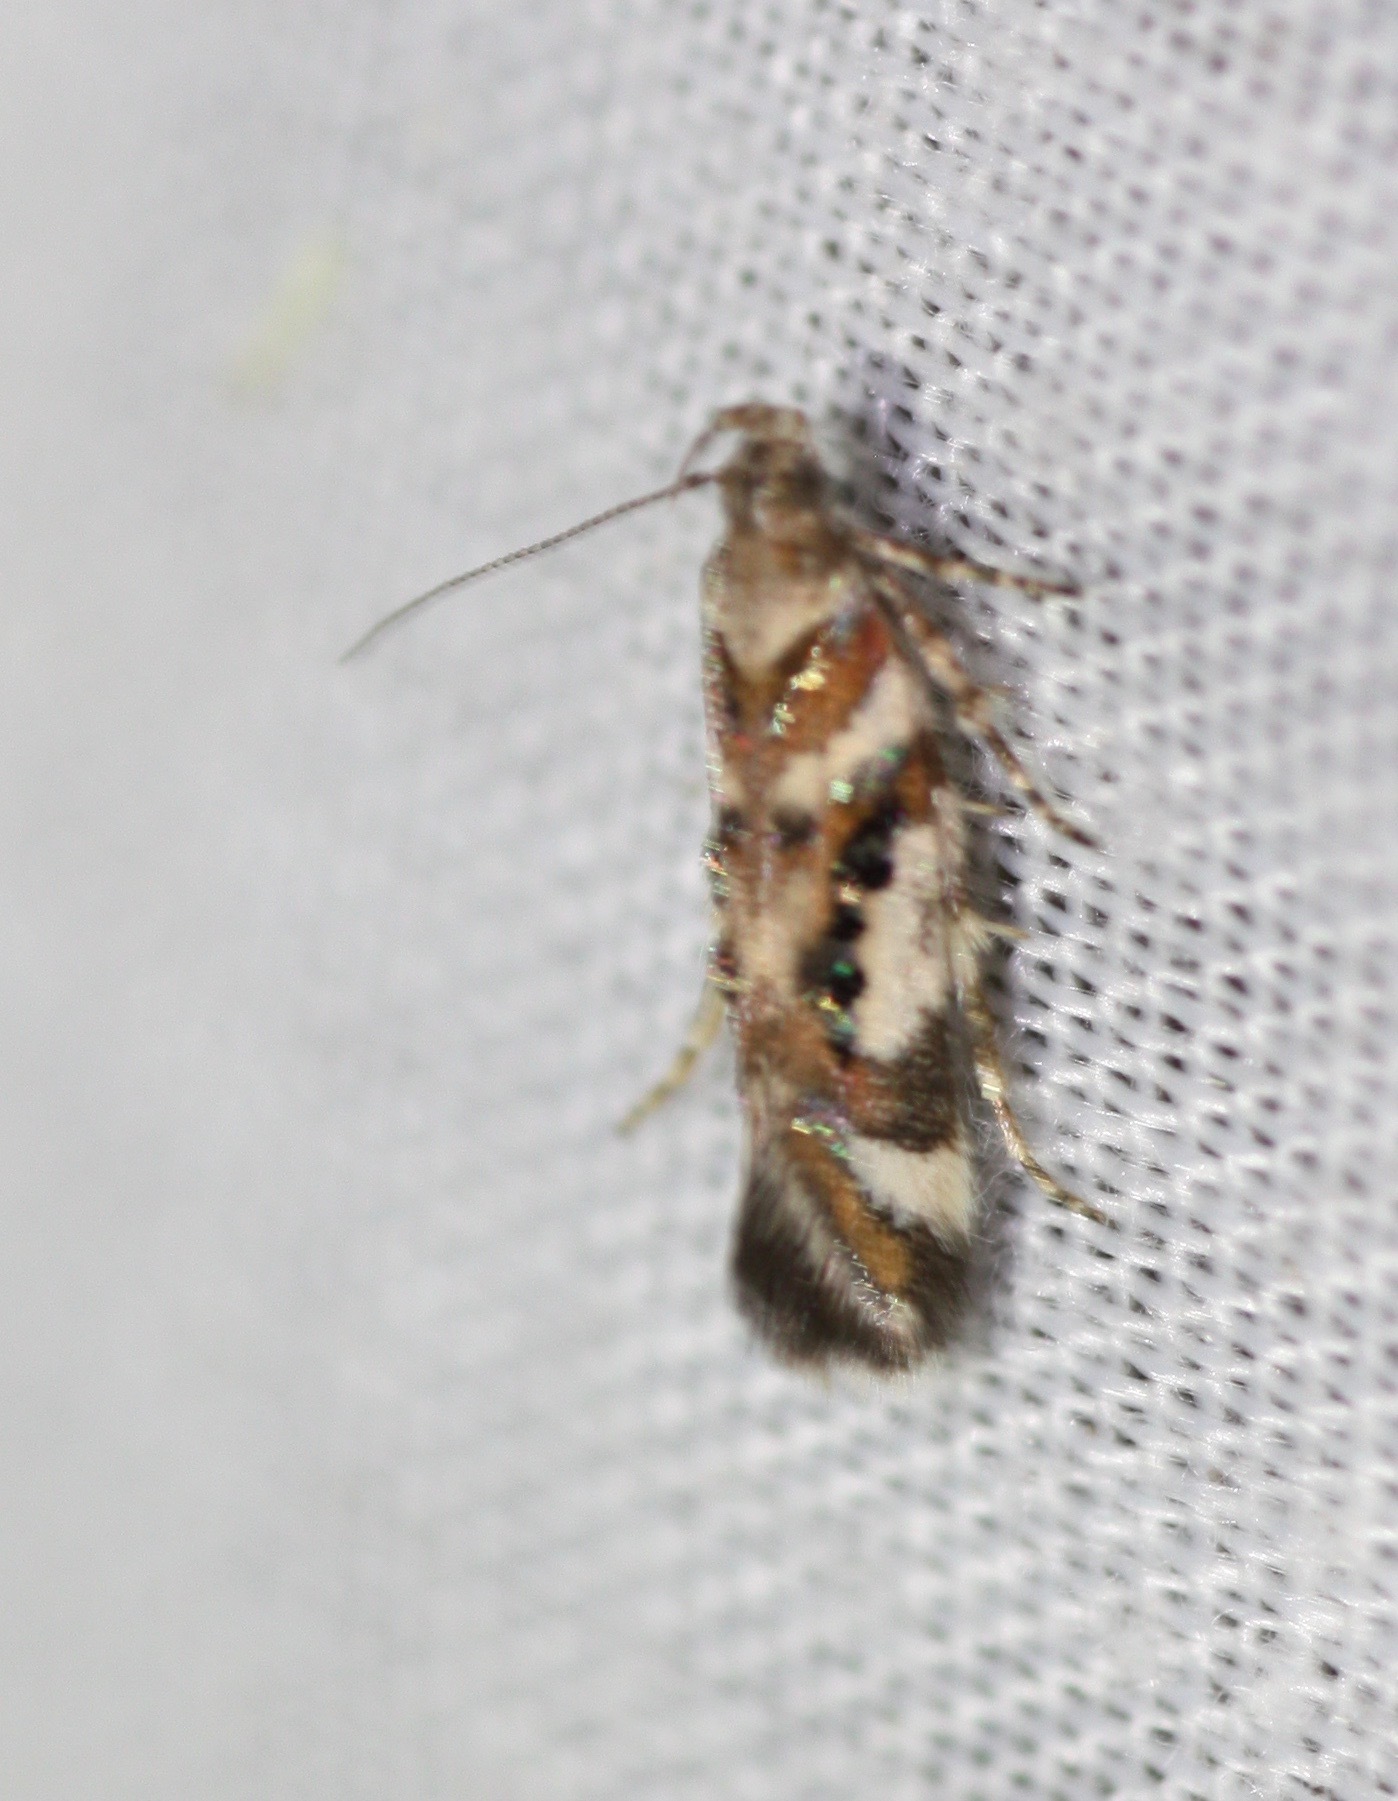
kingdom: Animalia
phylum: Arthropoda
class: Insecta
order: Lepidoptera
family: Gelechiidae
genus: Aristotelia
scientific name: Aristotelia elegantella
